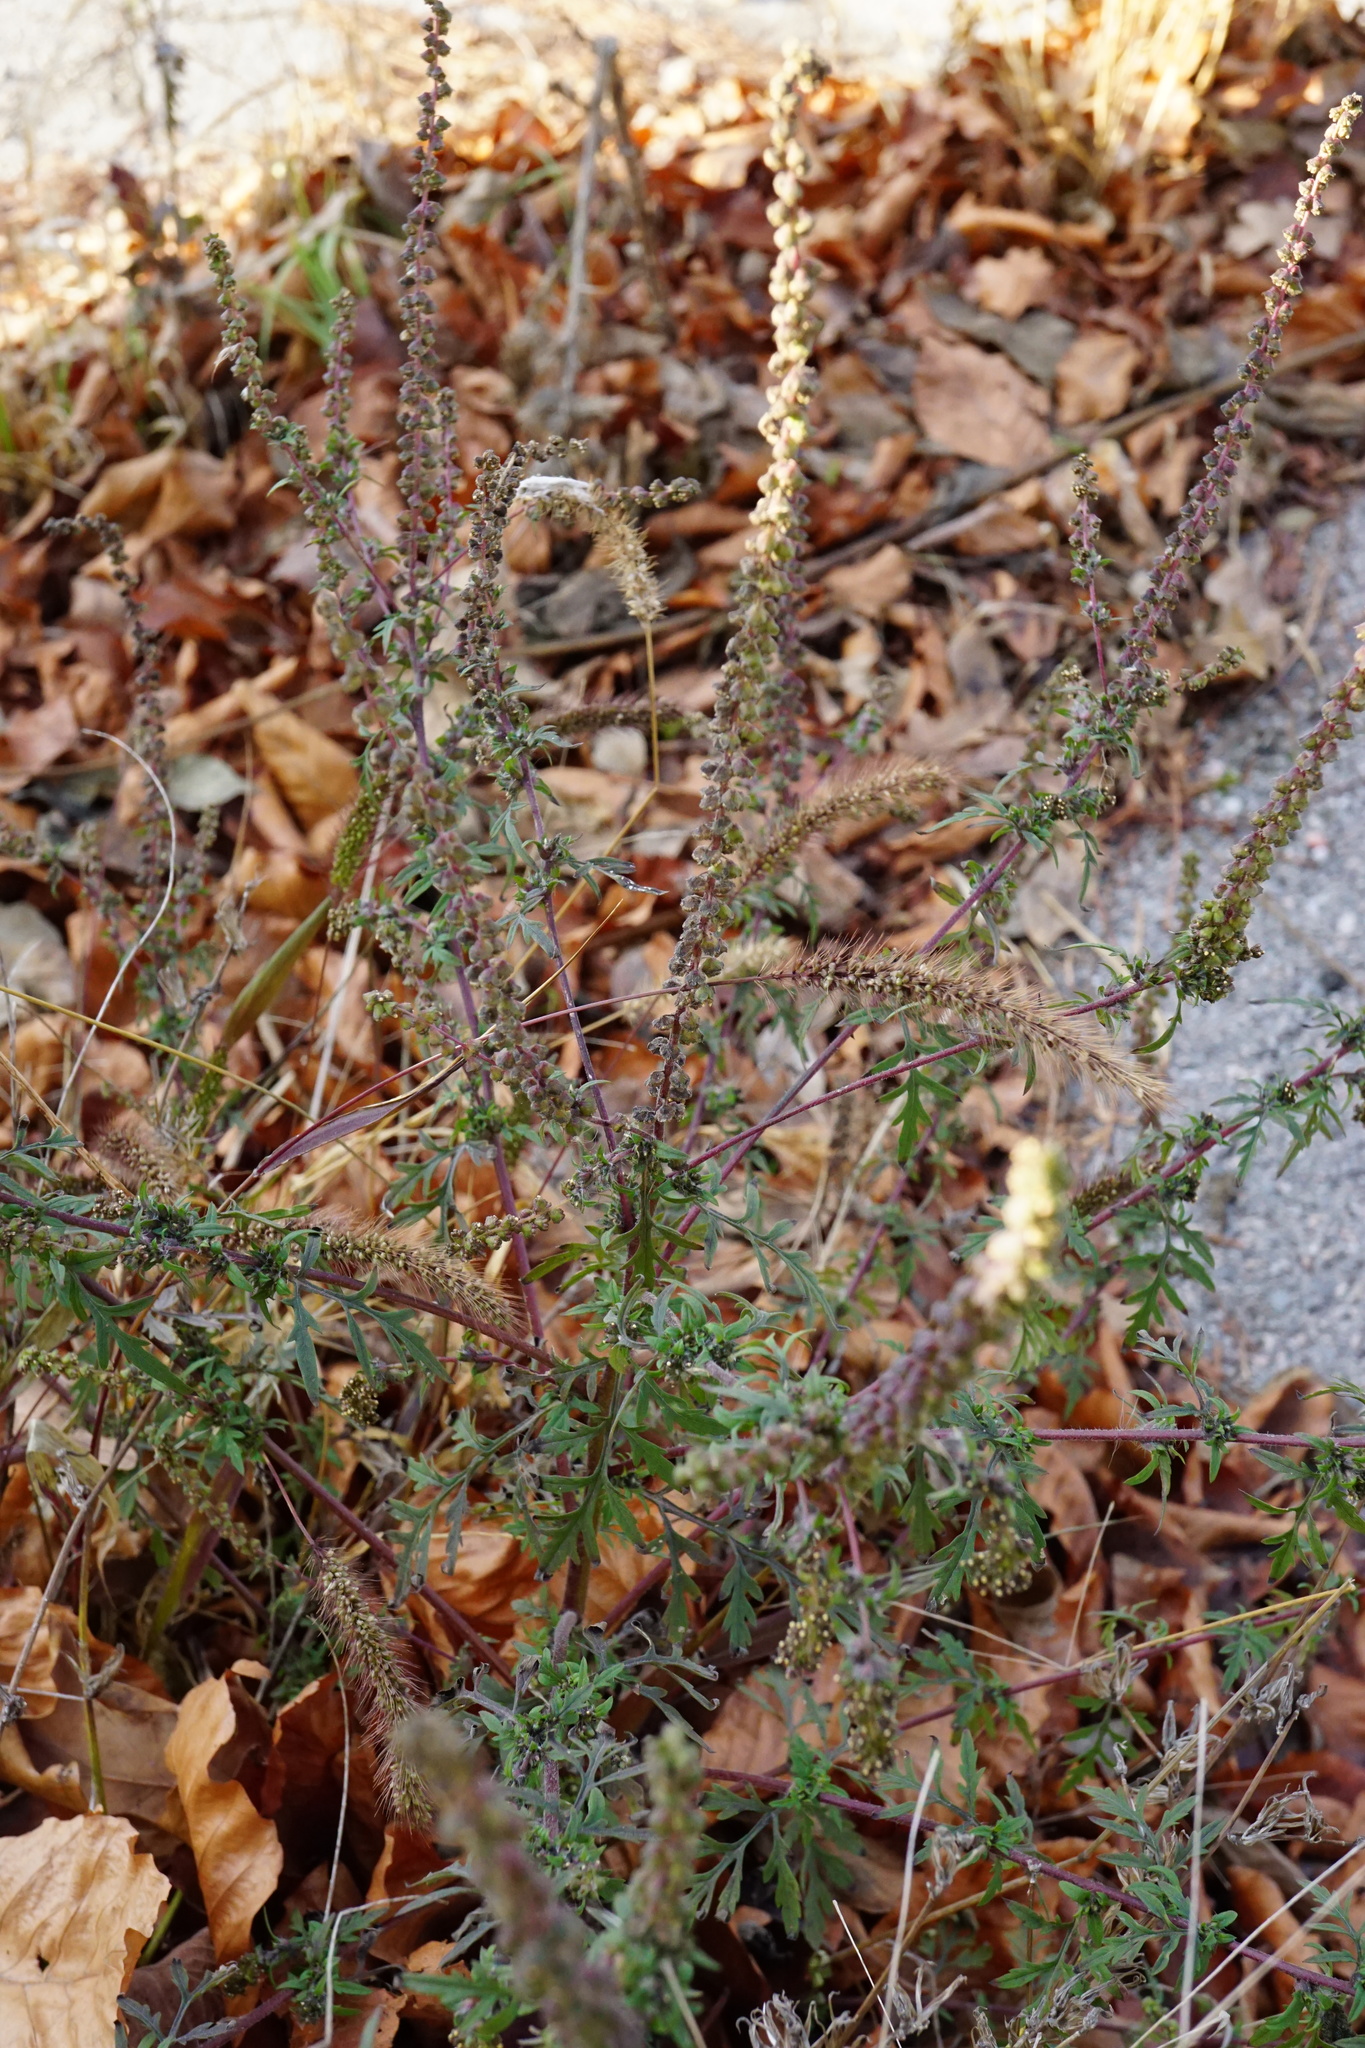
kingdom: Plantae
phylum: Tracheophyta
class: Magnoliopsida
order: Asterales
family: Asteraceae
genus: Ambrosia
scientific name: Ambrosia artemisiifolia
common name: Annual ragweed
